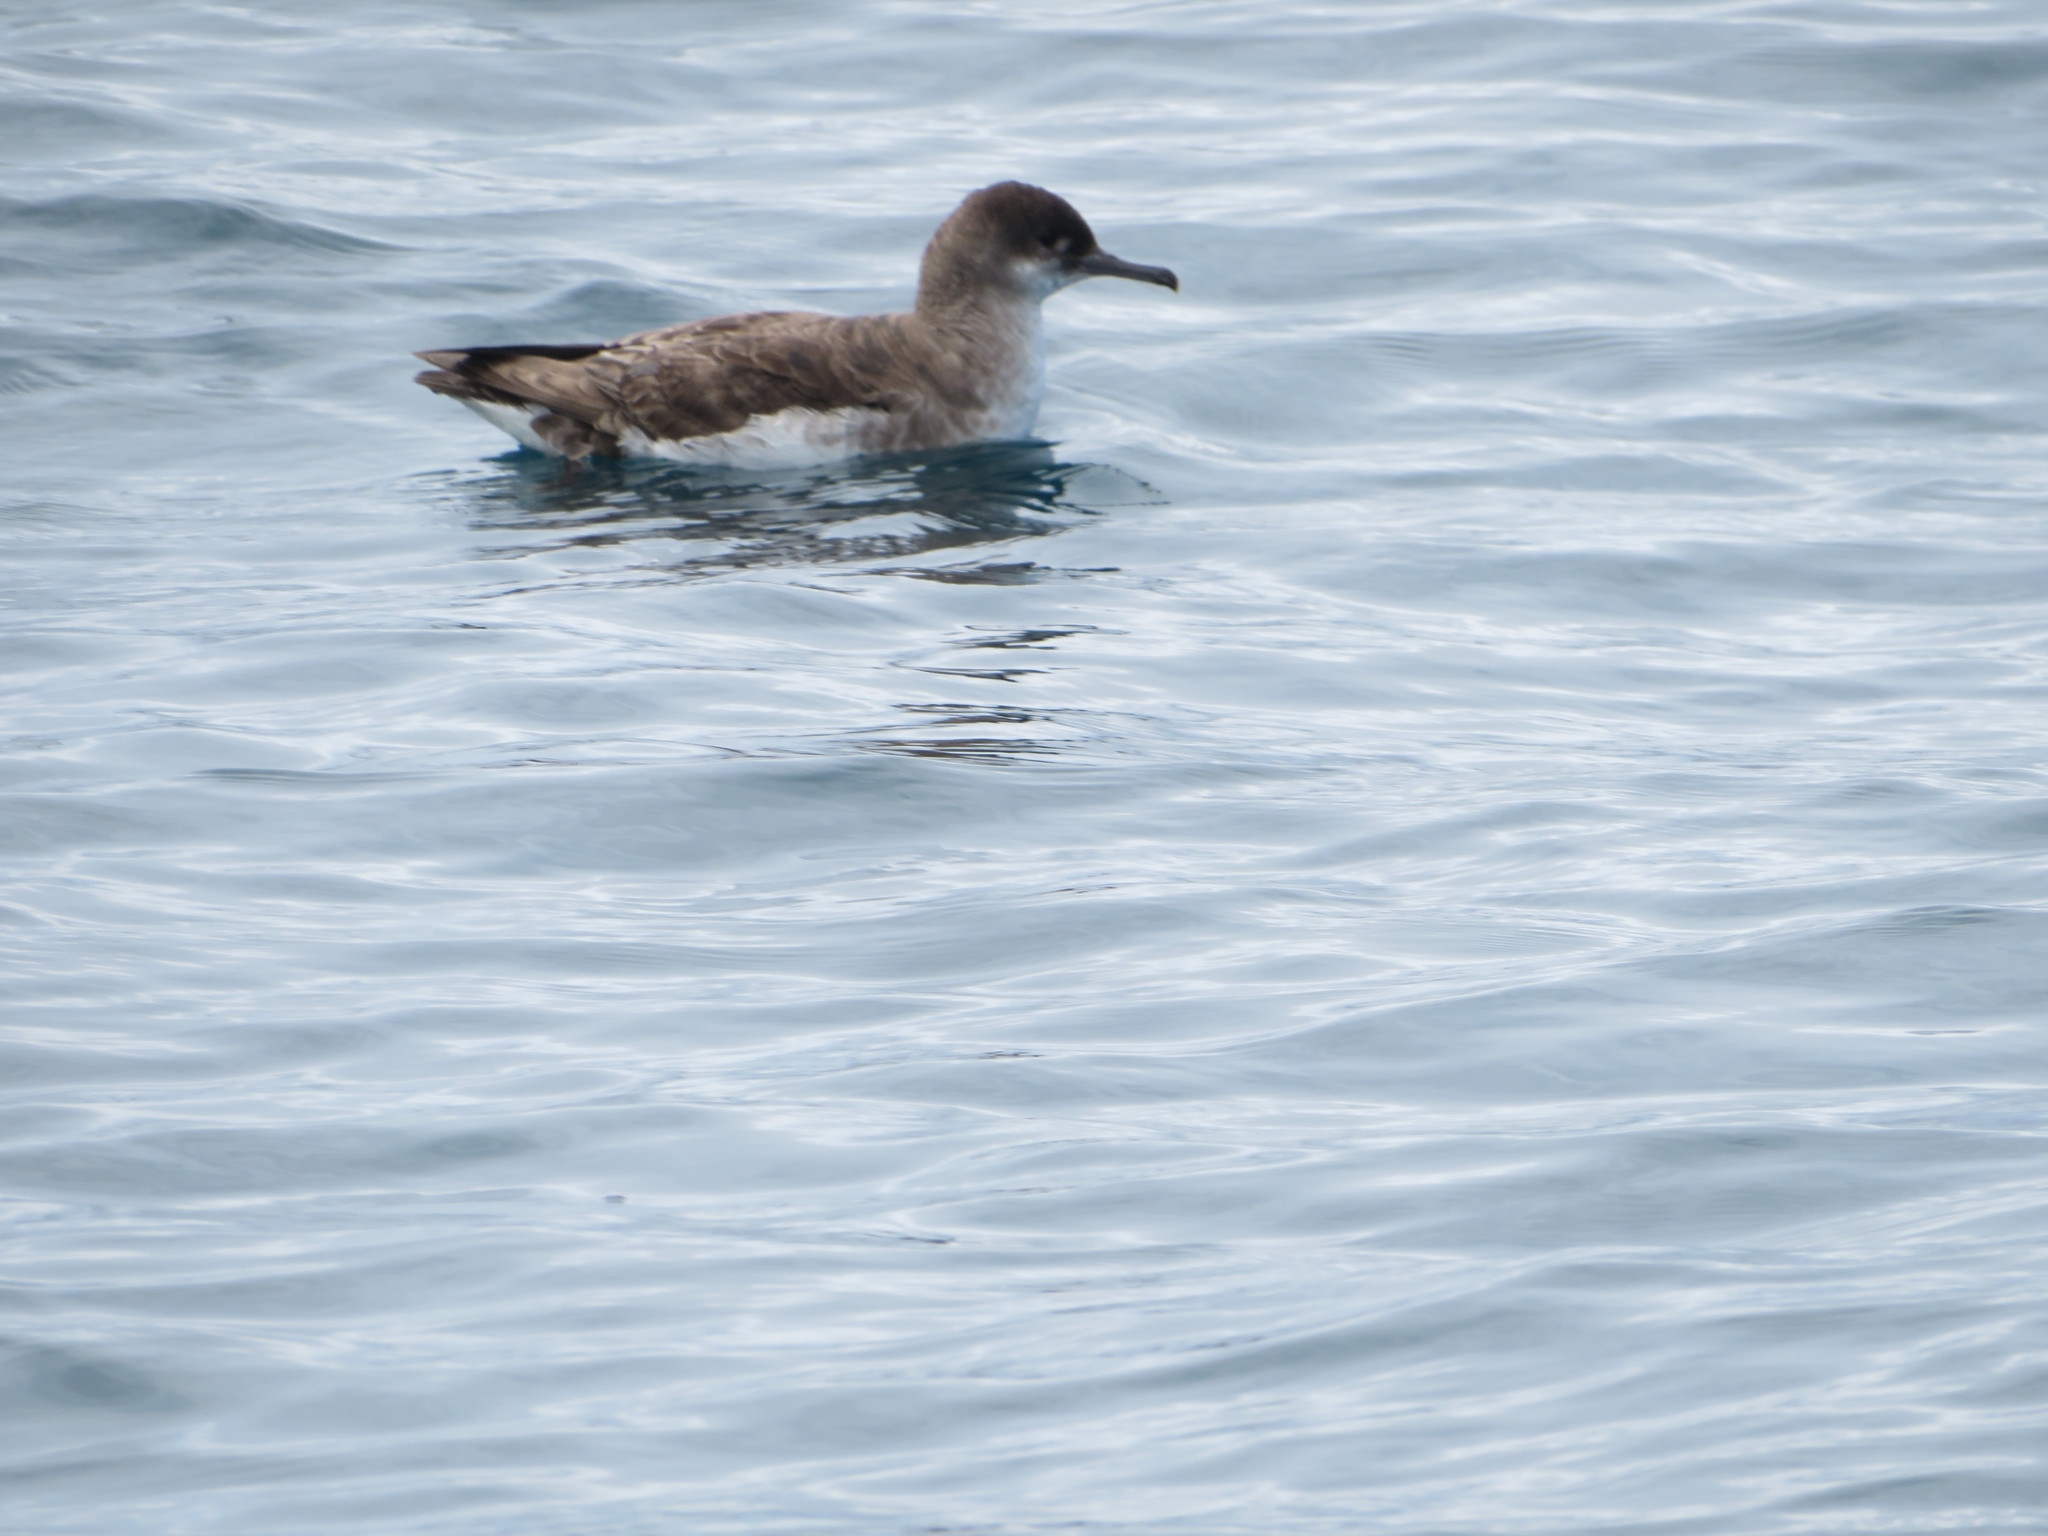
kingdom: Animalia
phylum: Chordata
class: Aves
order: Procellariiformes
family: Procellariidae
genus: Puffinus
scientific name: Puffinus gavia
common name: Fluttering shearwater
